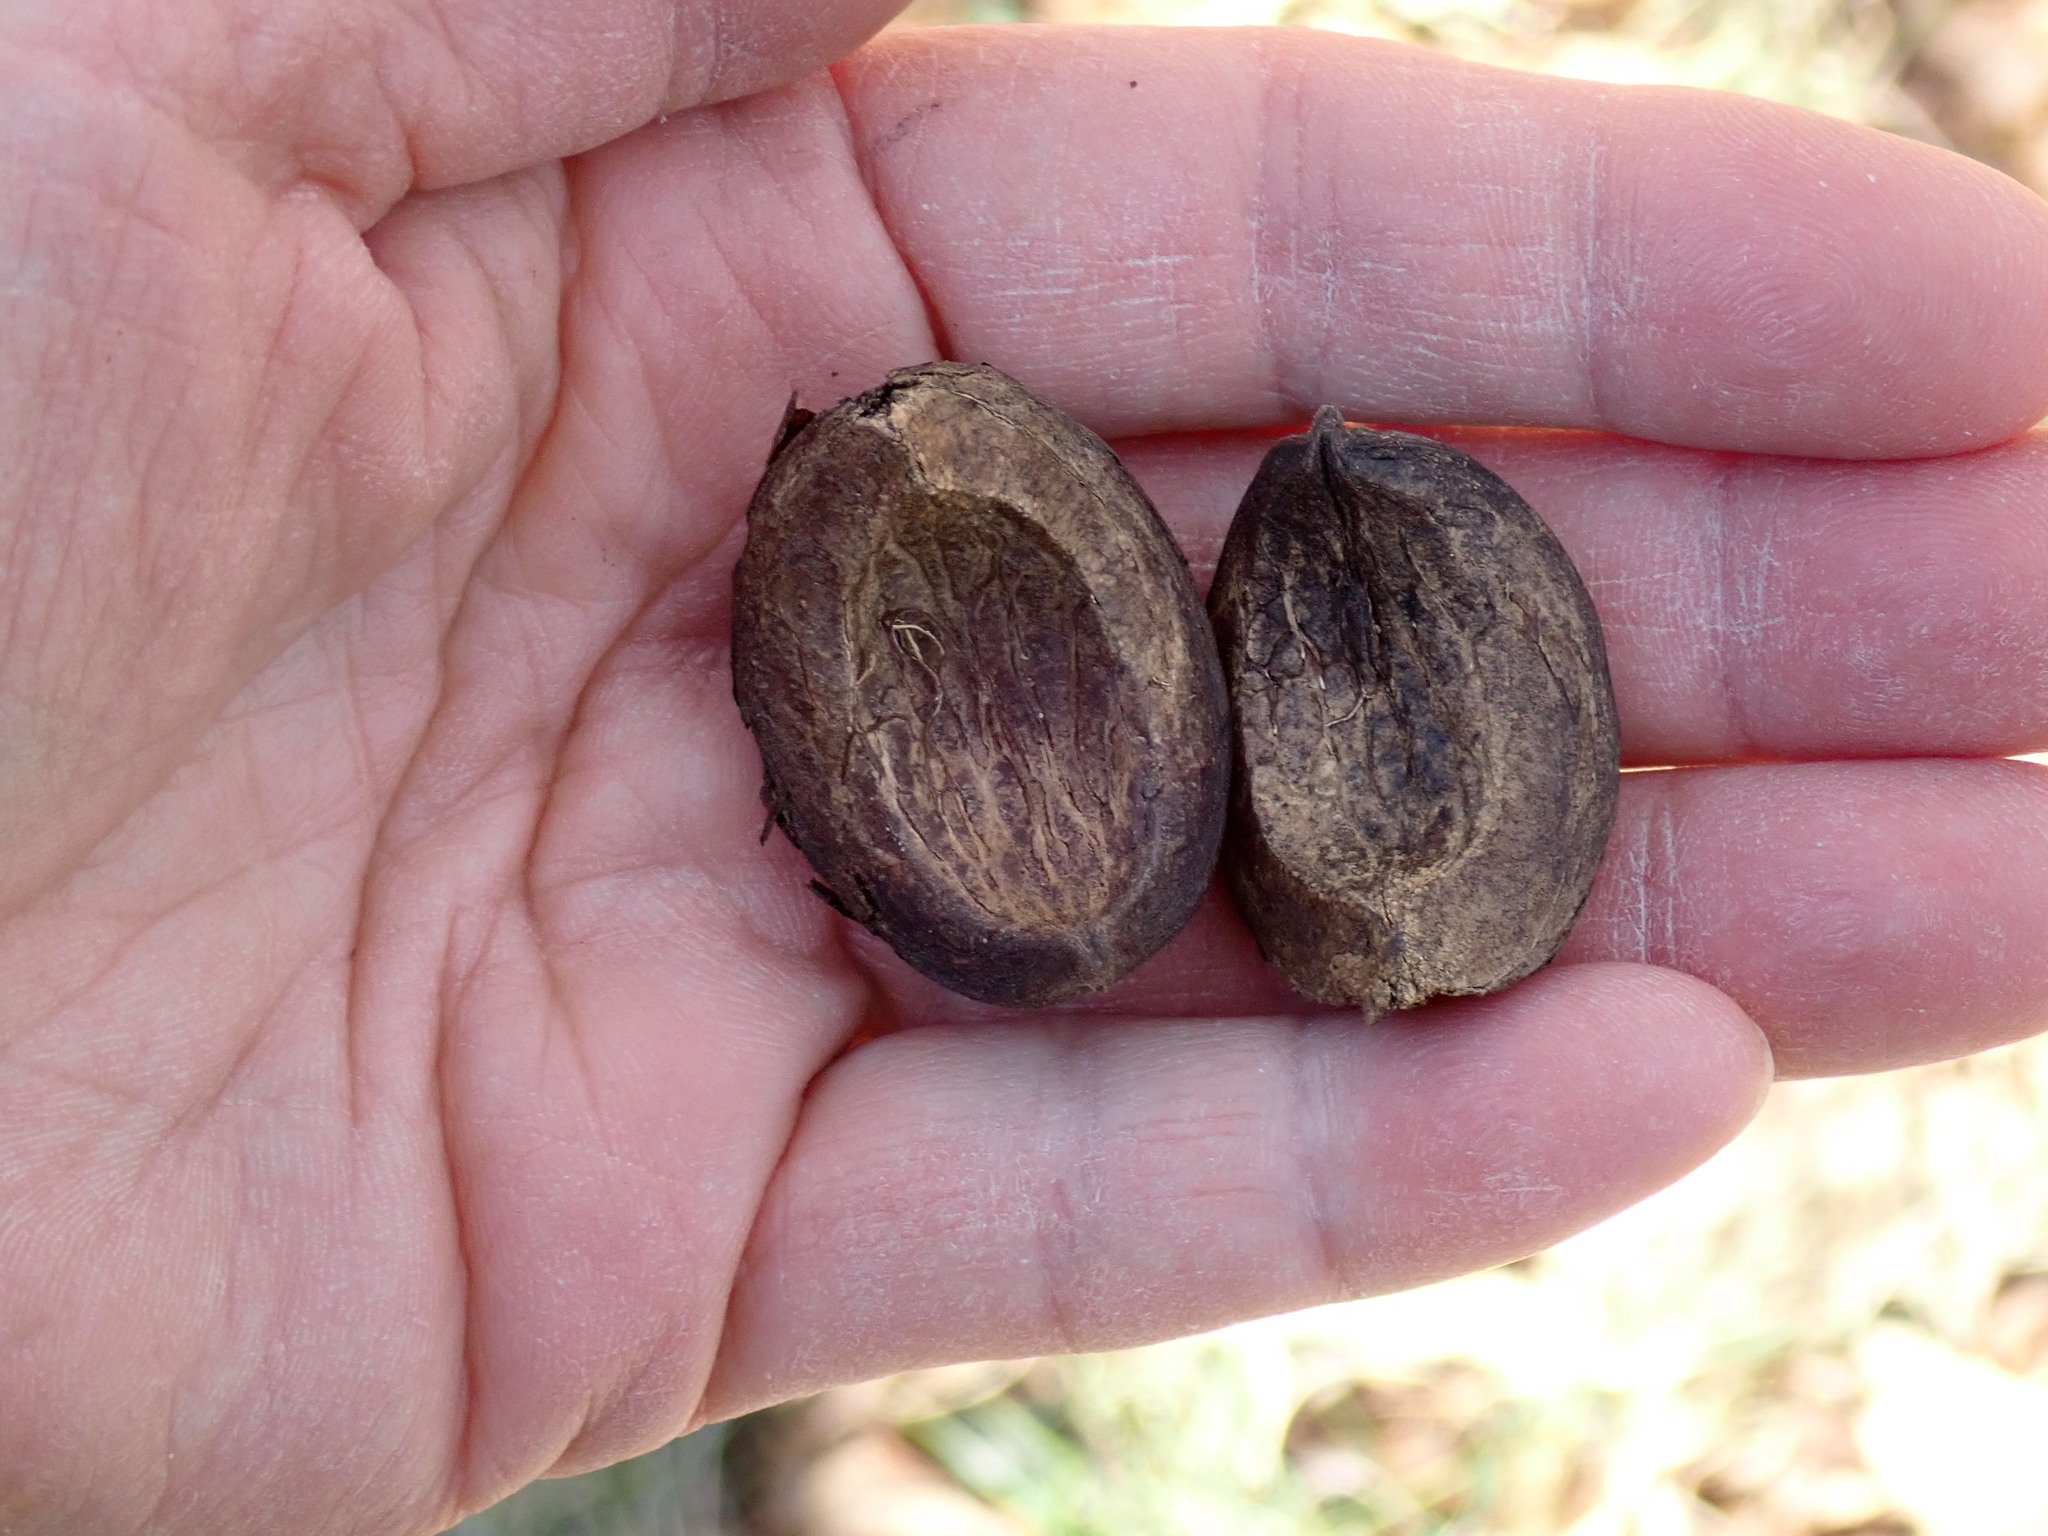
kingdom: Plantae
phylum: Tracheophyta
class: Magnoliopsida
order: Fagales
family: Juglandaceae
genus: Carya
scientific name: Carya ovata
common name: Shagbark hickory
